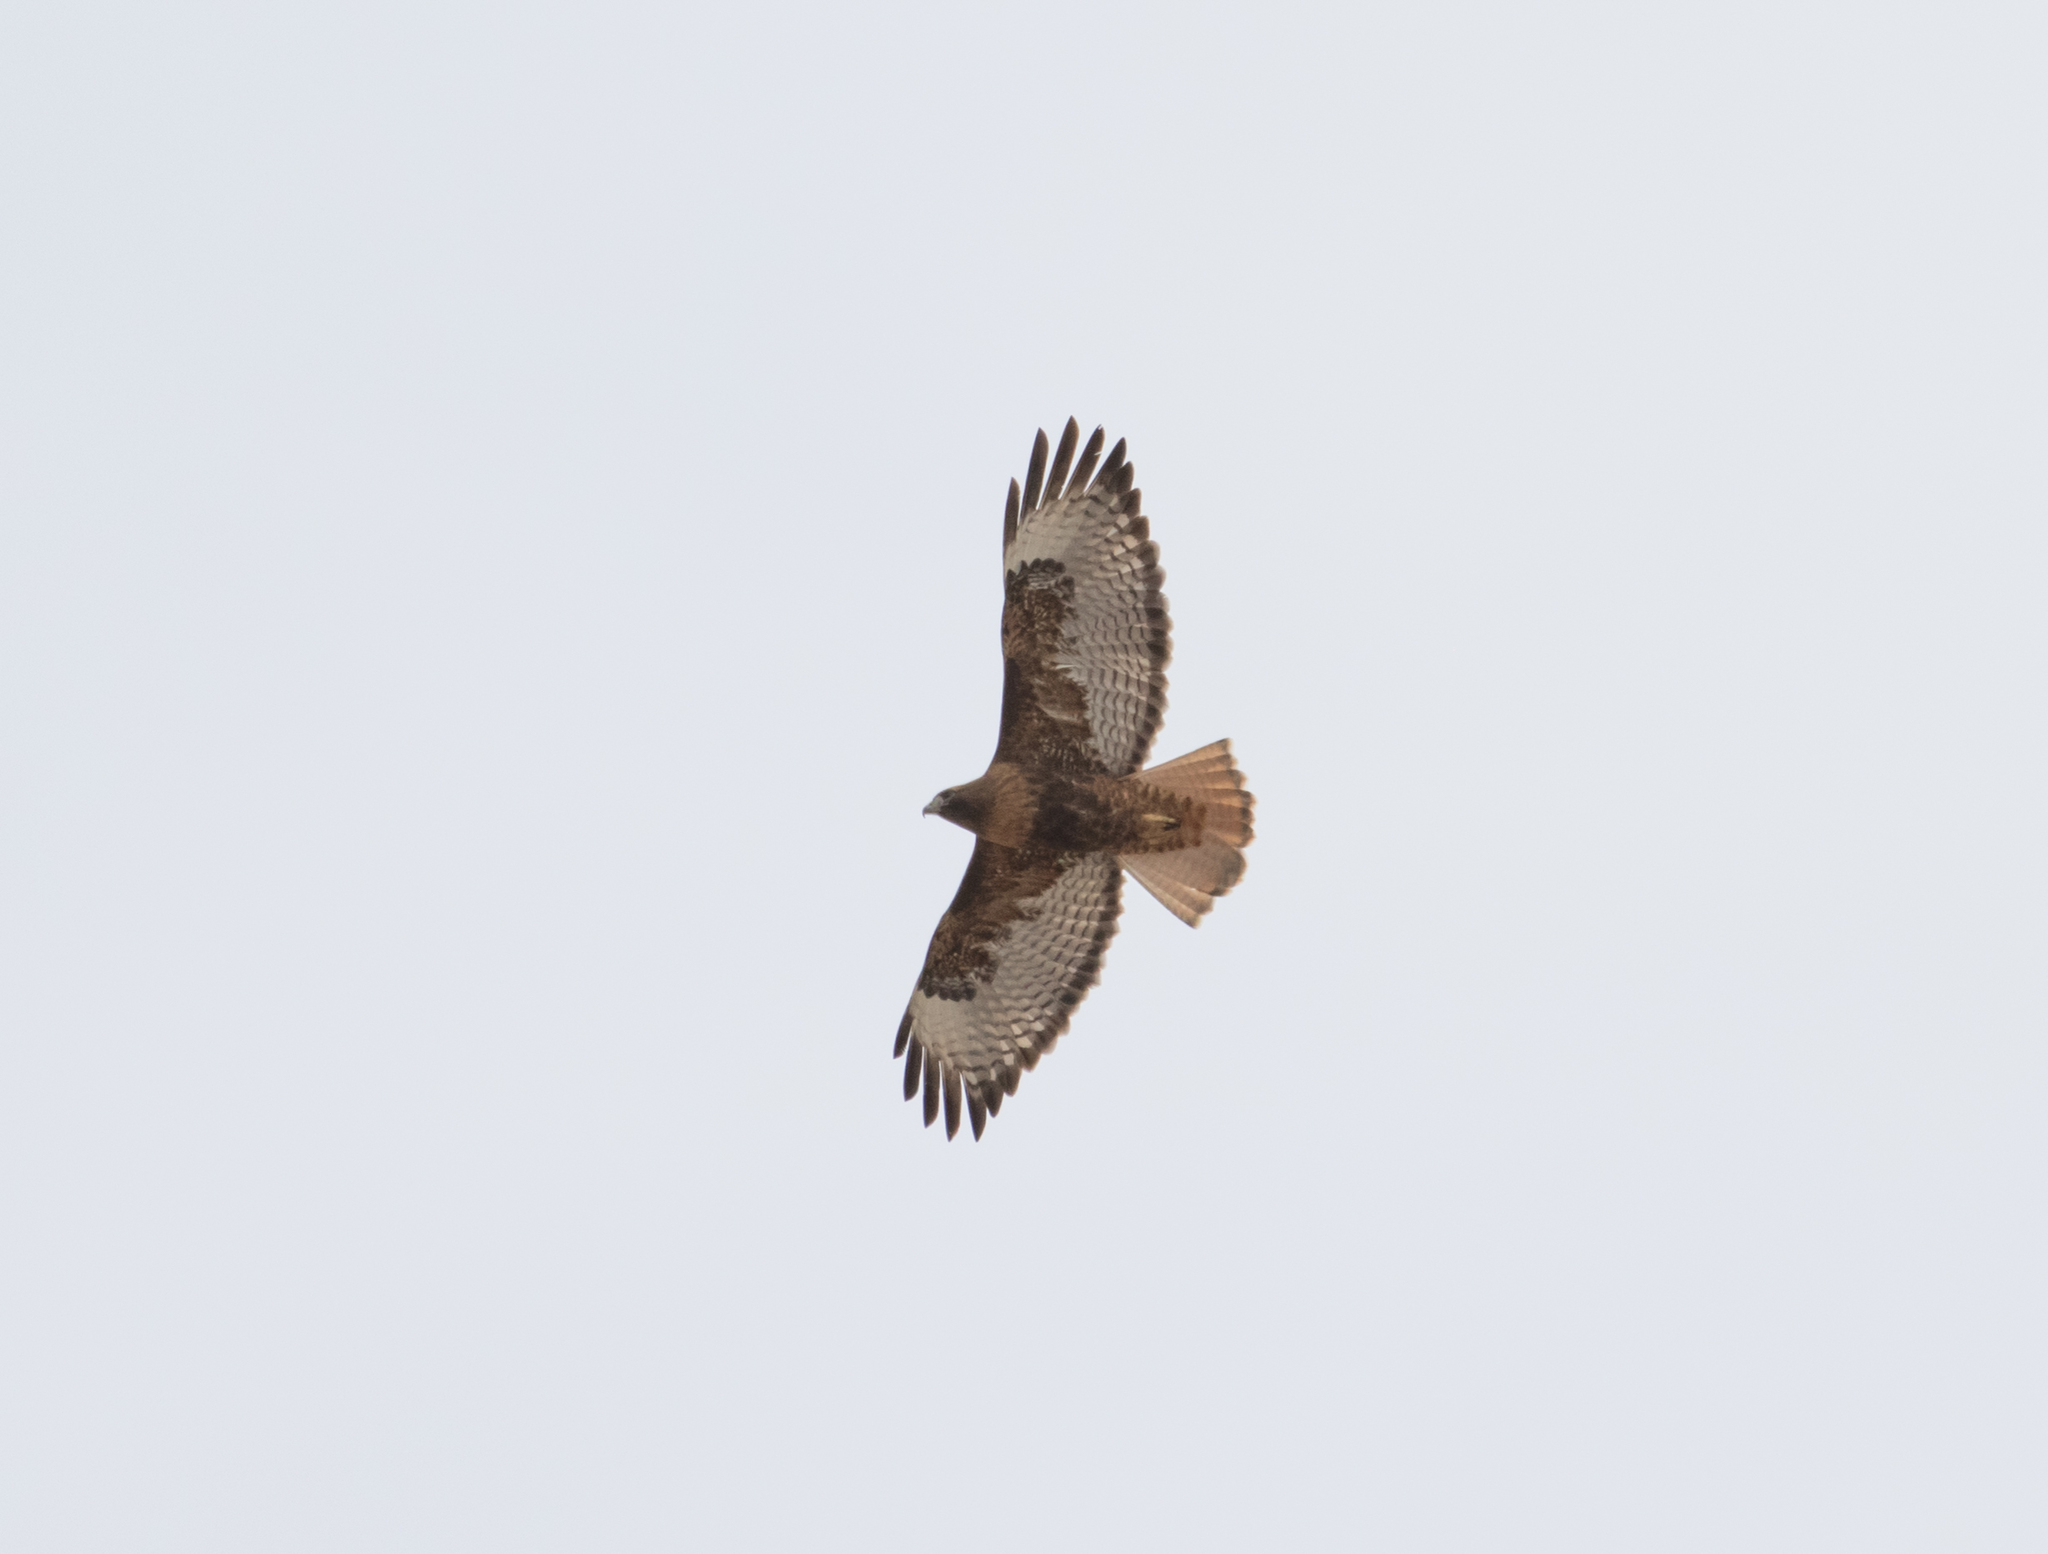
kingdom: Animalia
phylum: Chordata
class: Aves
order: Accipitriformes
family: Accipitridae
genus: Buteo
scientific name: Buteo jamaicensis
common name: Red-tailed hawk
